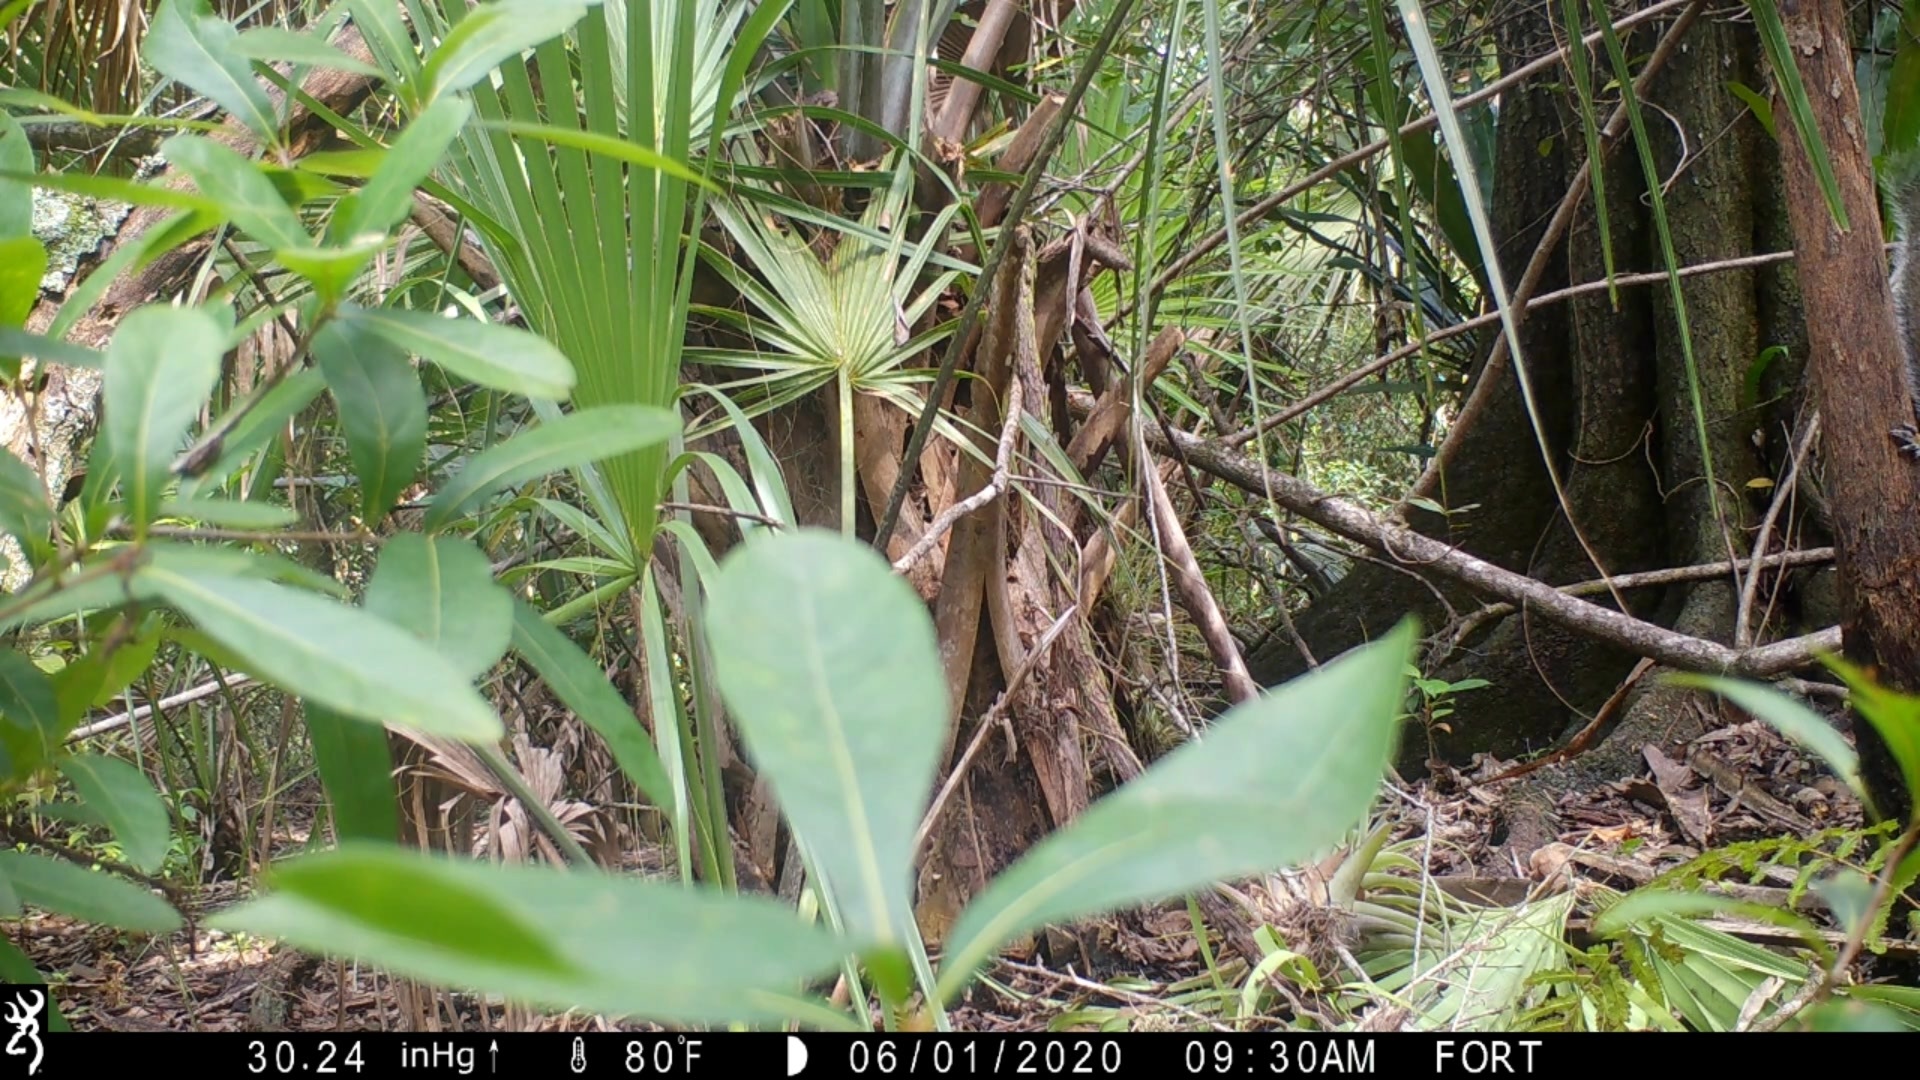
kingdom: Animalia
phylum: Chordata
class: Mammalia
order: Rodentia
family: Sciuridae
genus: Sciurus
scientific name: Sciurus carolinensis
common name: Eastern gray squirrel
